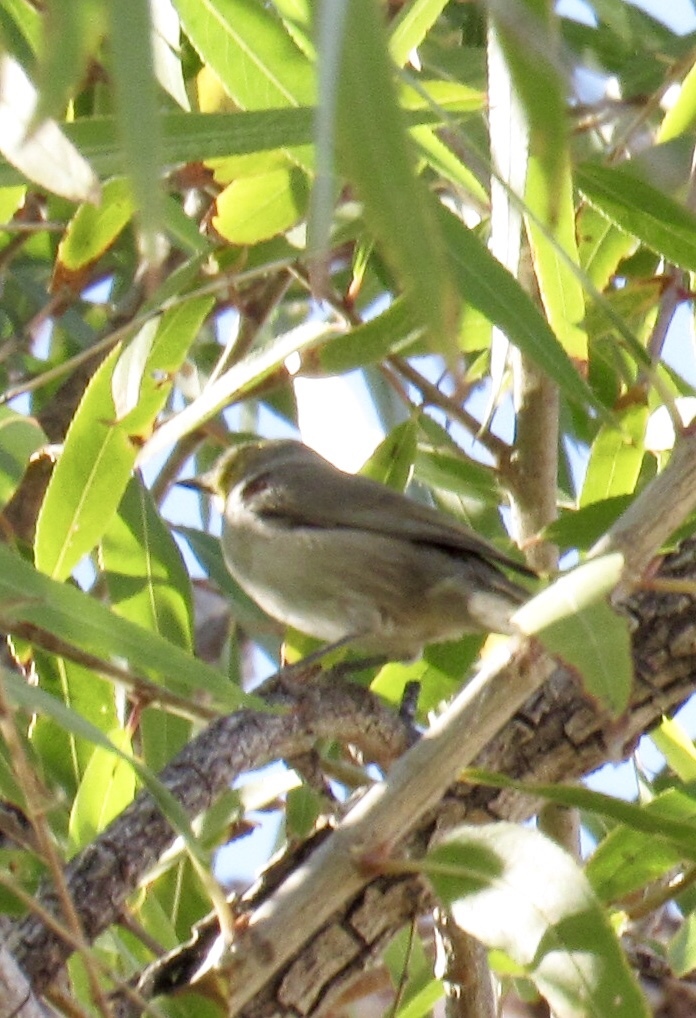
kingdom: Animalia
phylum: Chordata
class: Aves
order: Passeriformes
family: Remizidae
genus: Auriparus
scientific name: Auriparus flaviceps
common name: Verdin
